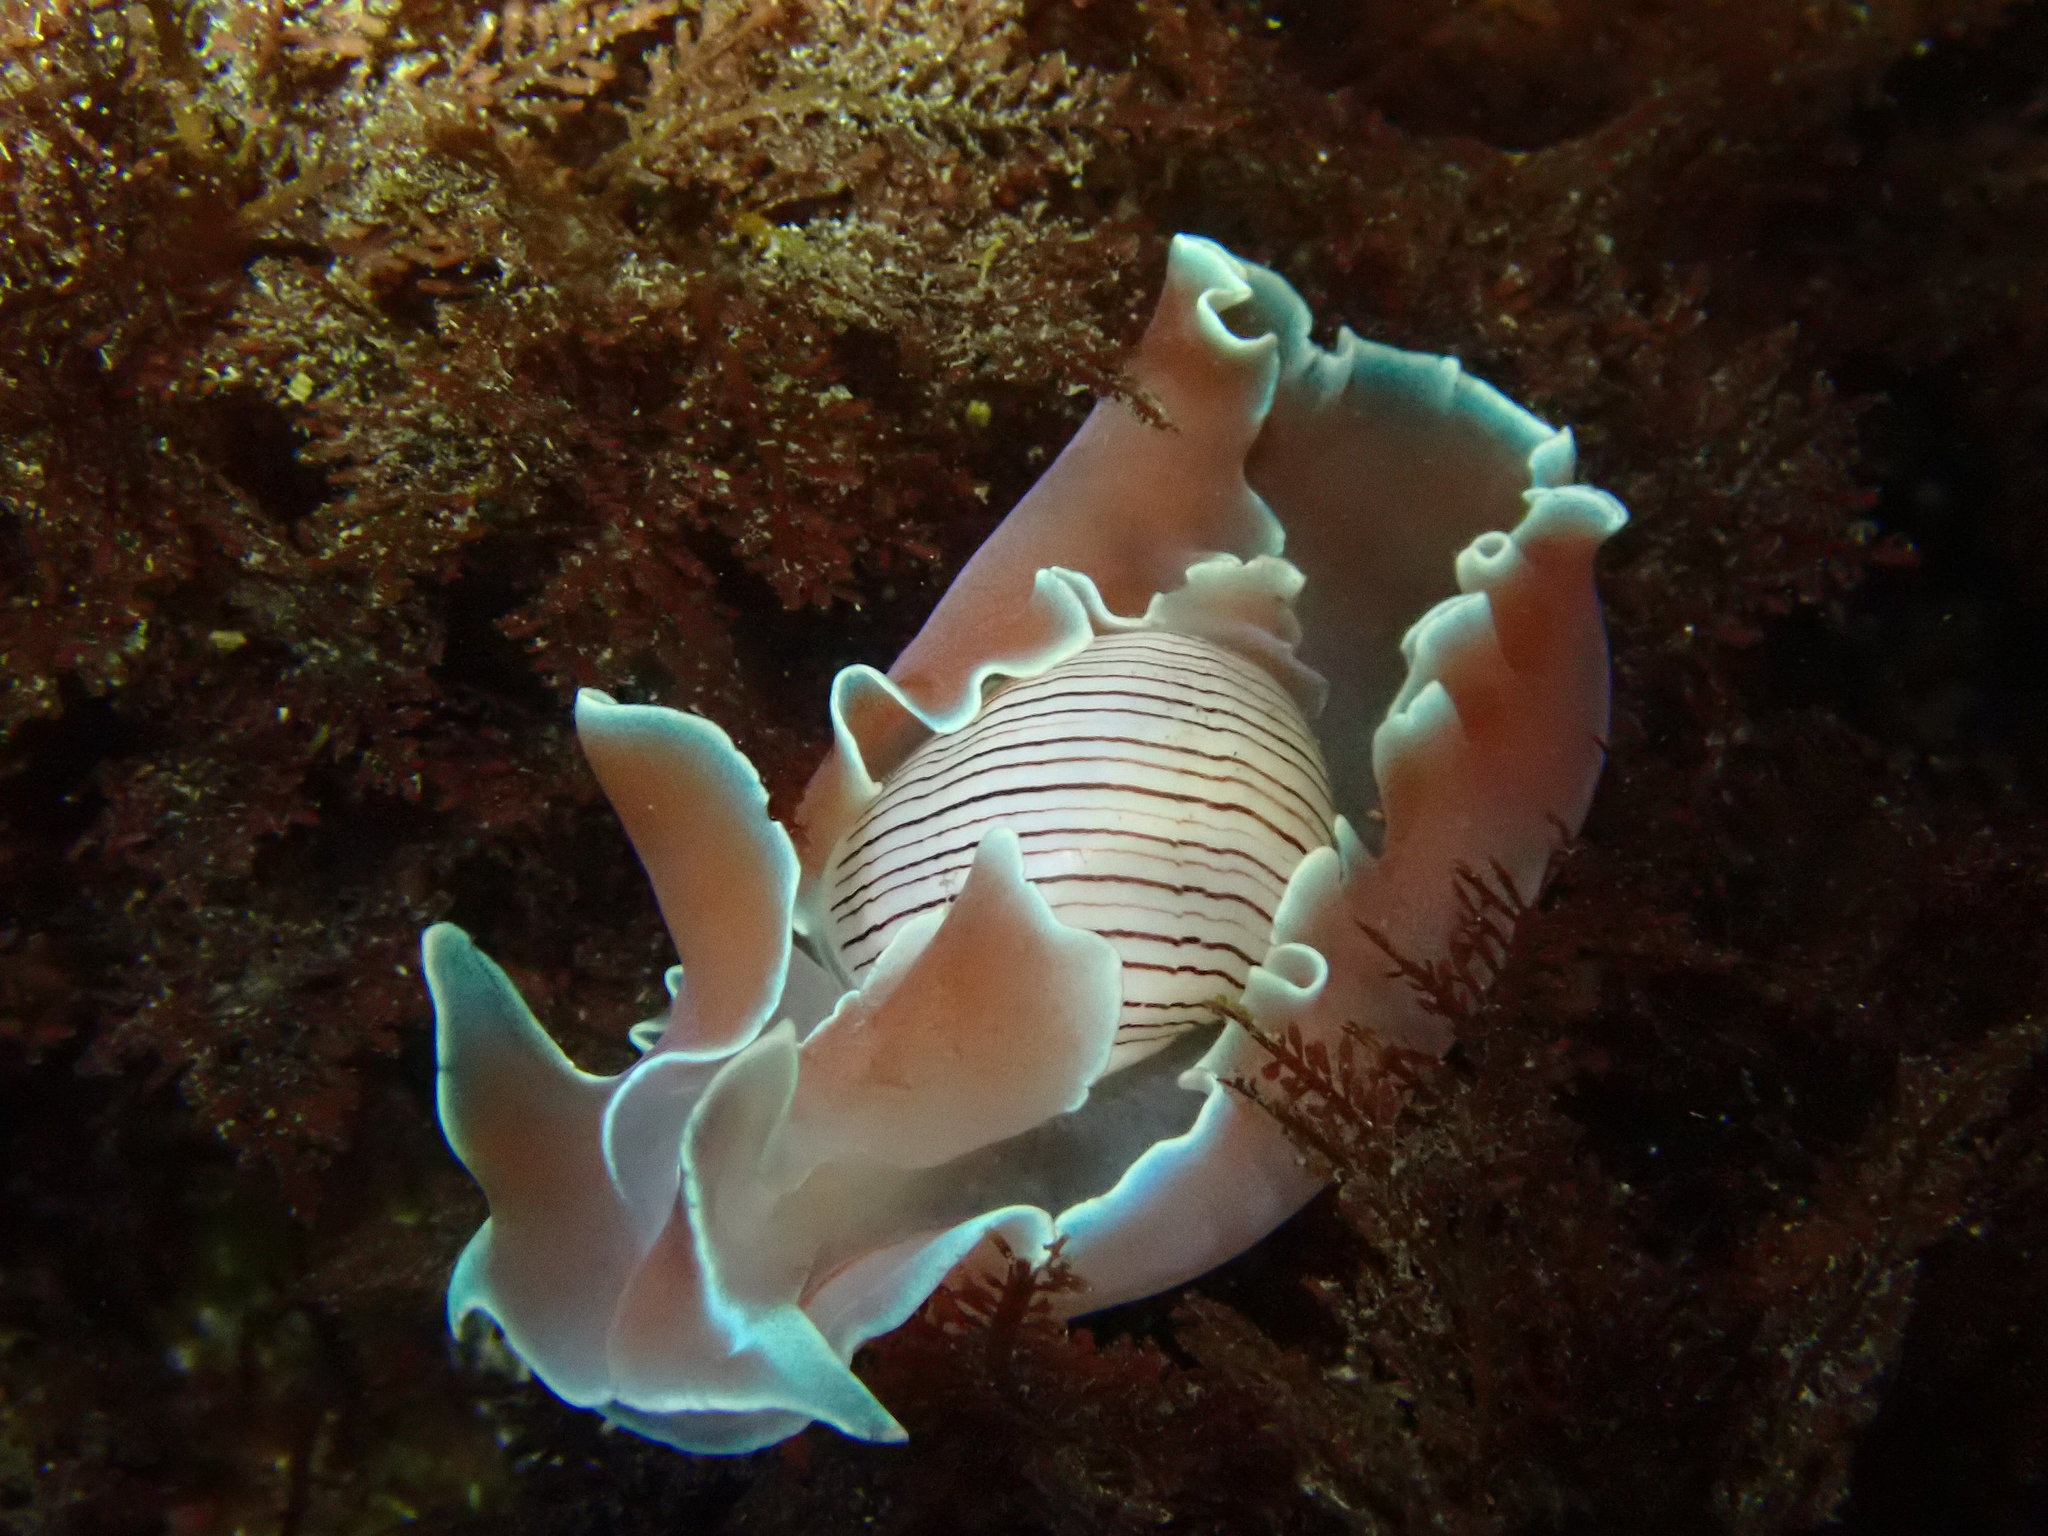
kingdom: Animalia
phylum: Mollusca
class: Gastropoda
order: Cephalaspidea
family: Aplustridae
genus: Hydatina
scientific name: Hydatina physis
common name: Brown-line paperbubble
